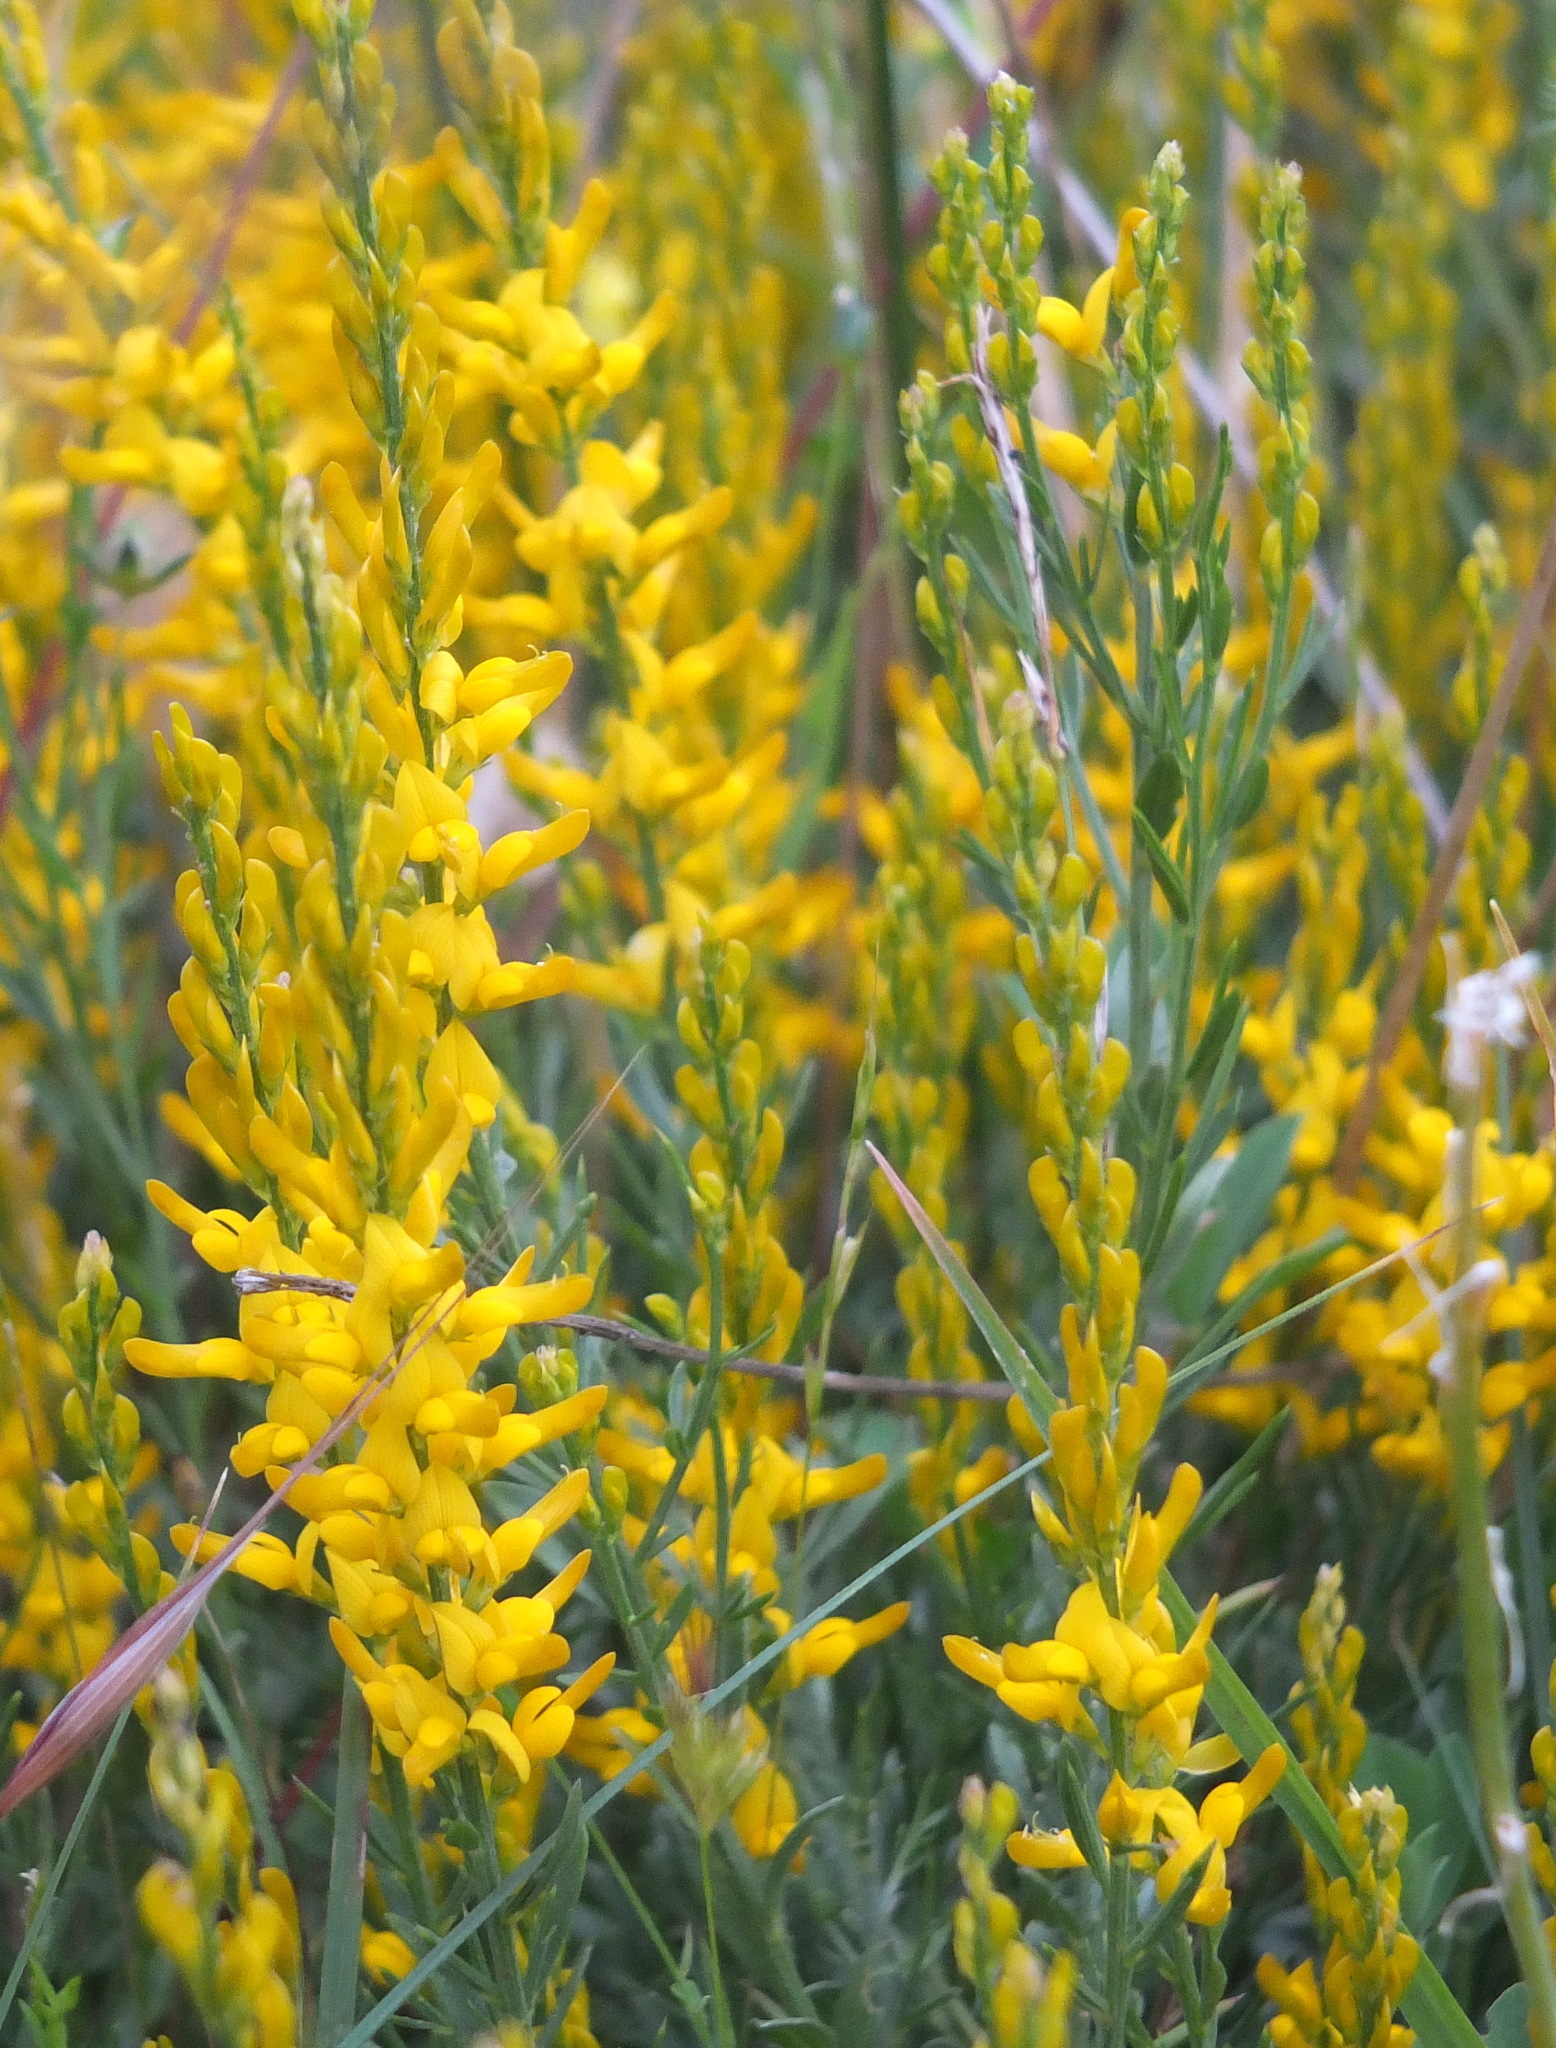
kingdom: Plantae
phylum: Tracheophyta
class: Magnoliopsida
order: Fabales
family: Fabaceae
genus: Genista
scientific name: Genista tricuspidata
